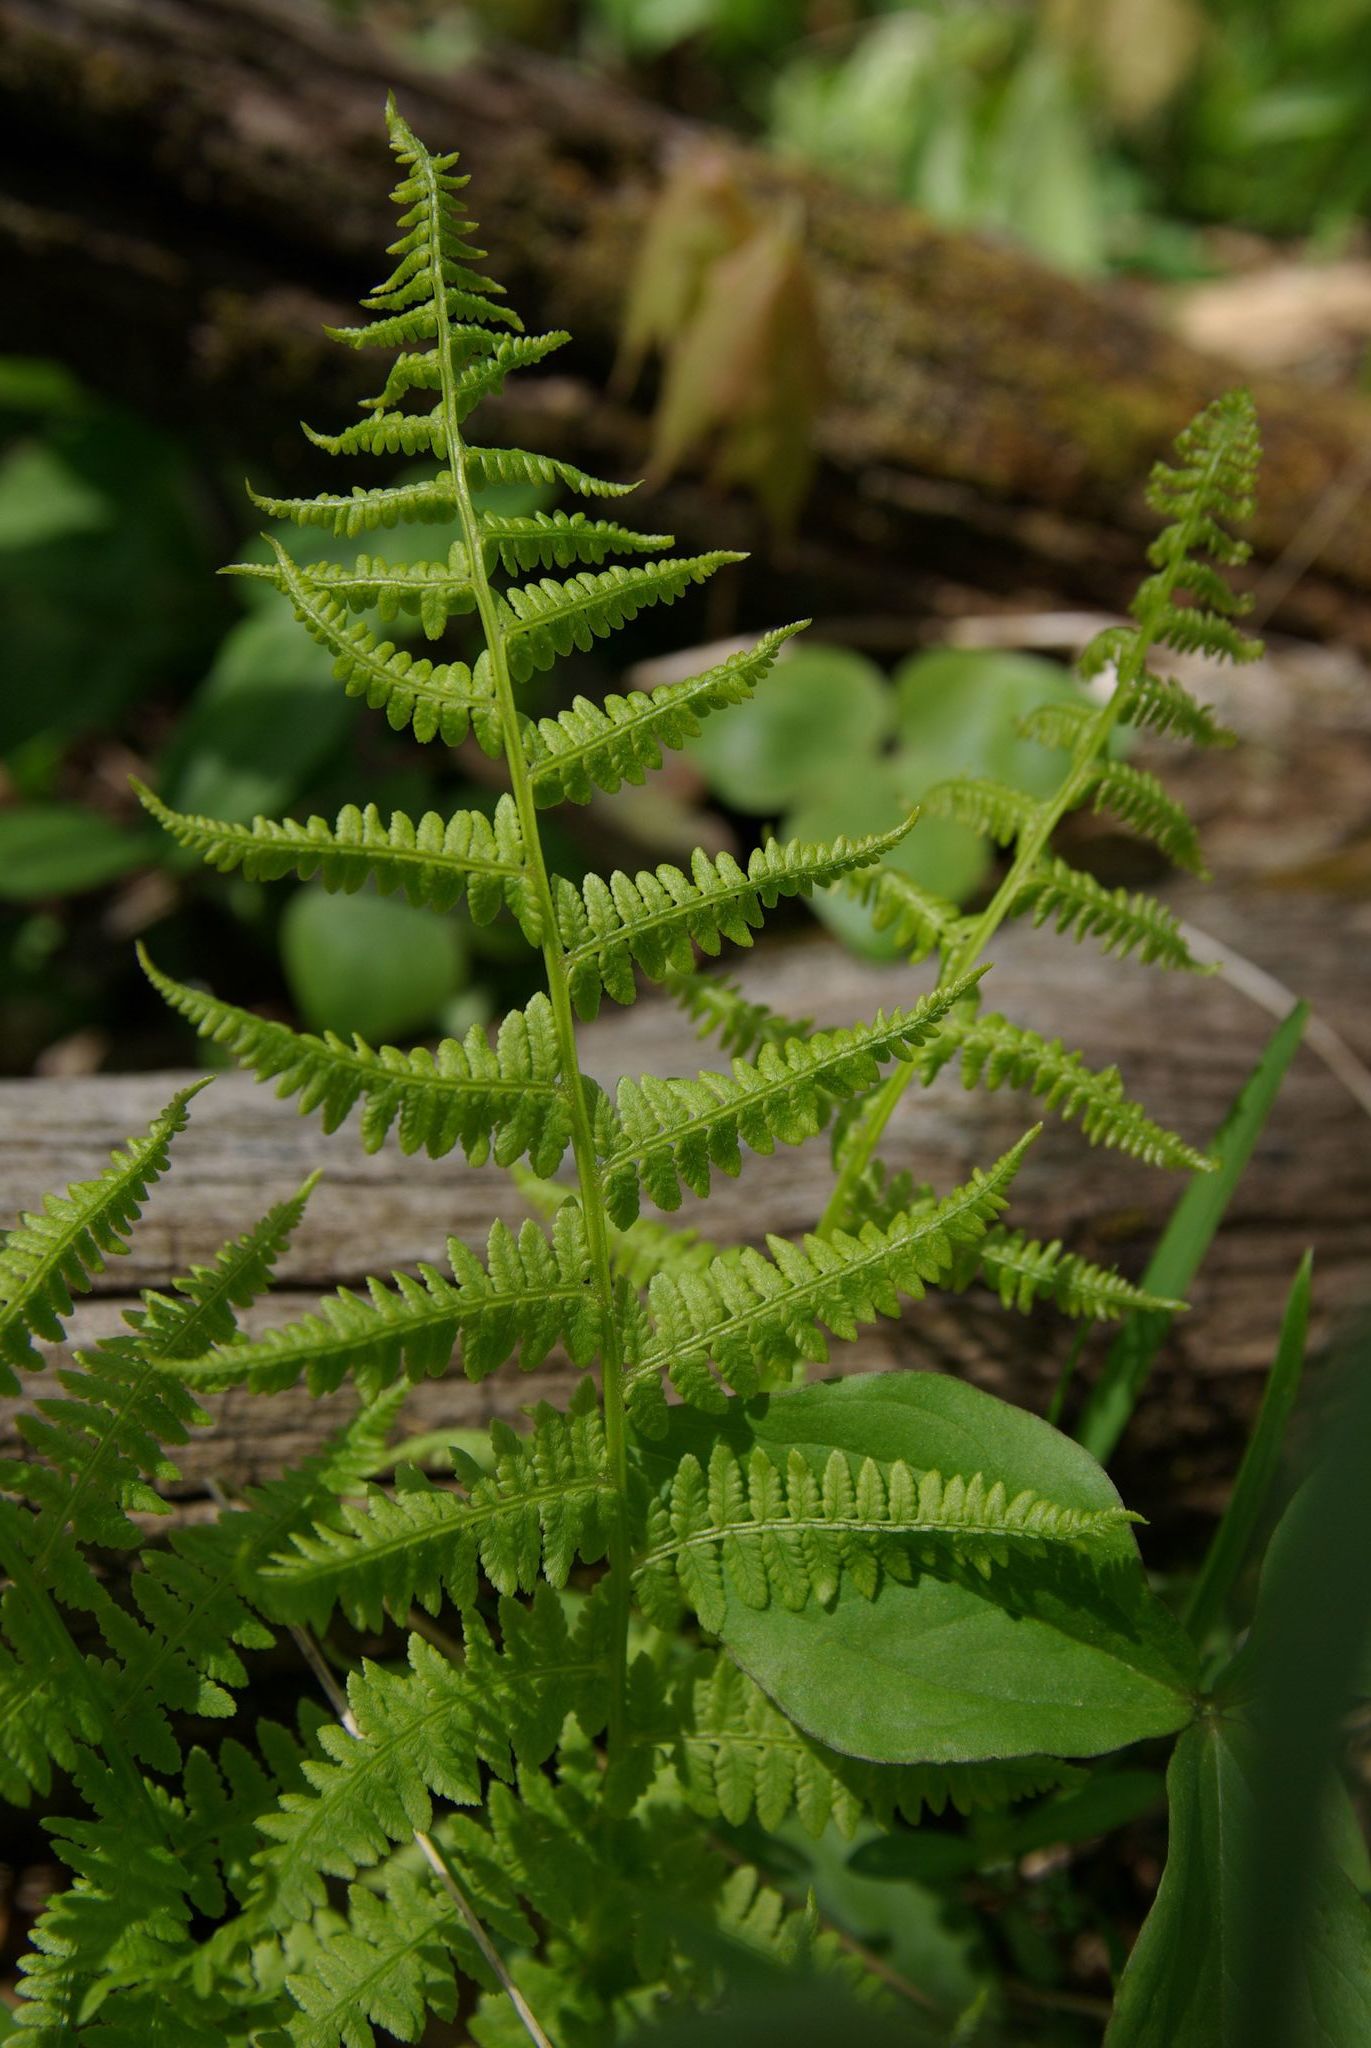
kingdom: Plantae
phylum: Tracheophyta
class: Polypodiopsida
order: Polypodiales
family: Athyriaceae
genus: Athyrium
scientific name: Athyrium angustum
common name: Northern lady fern
